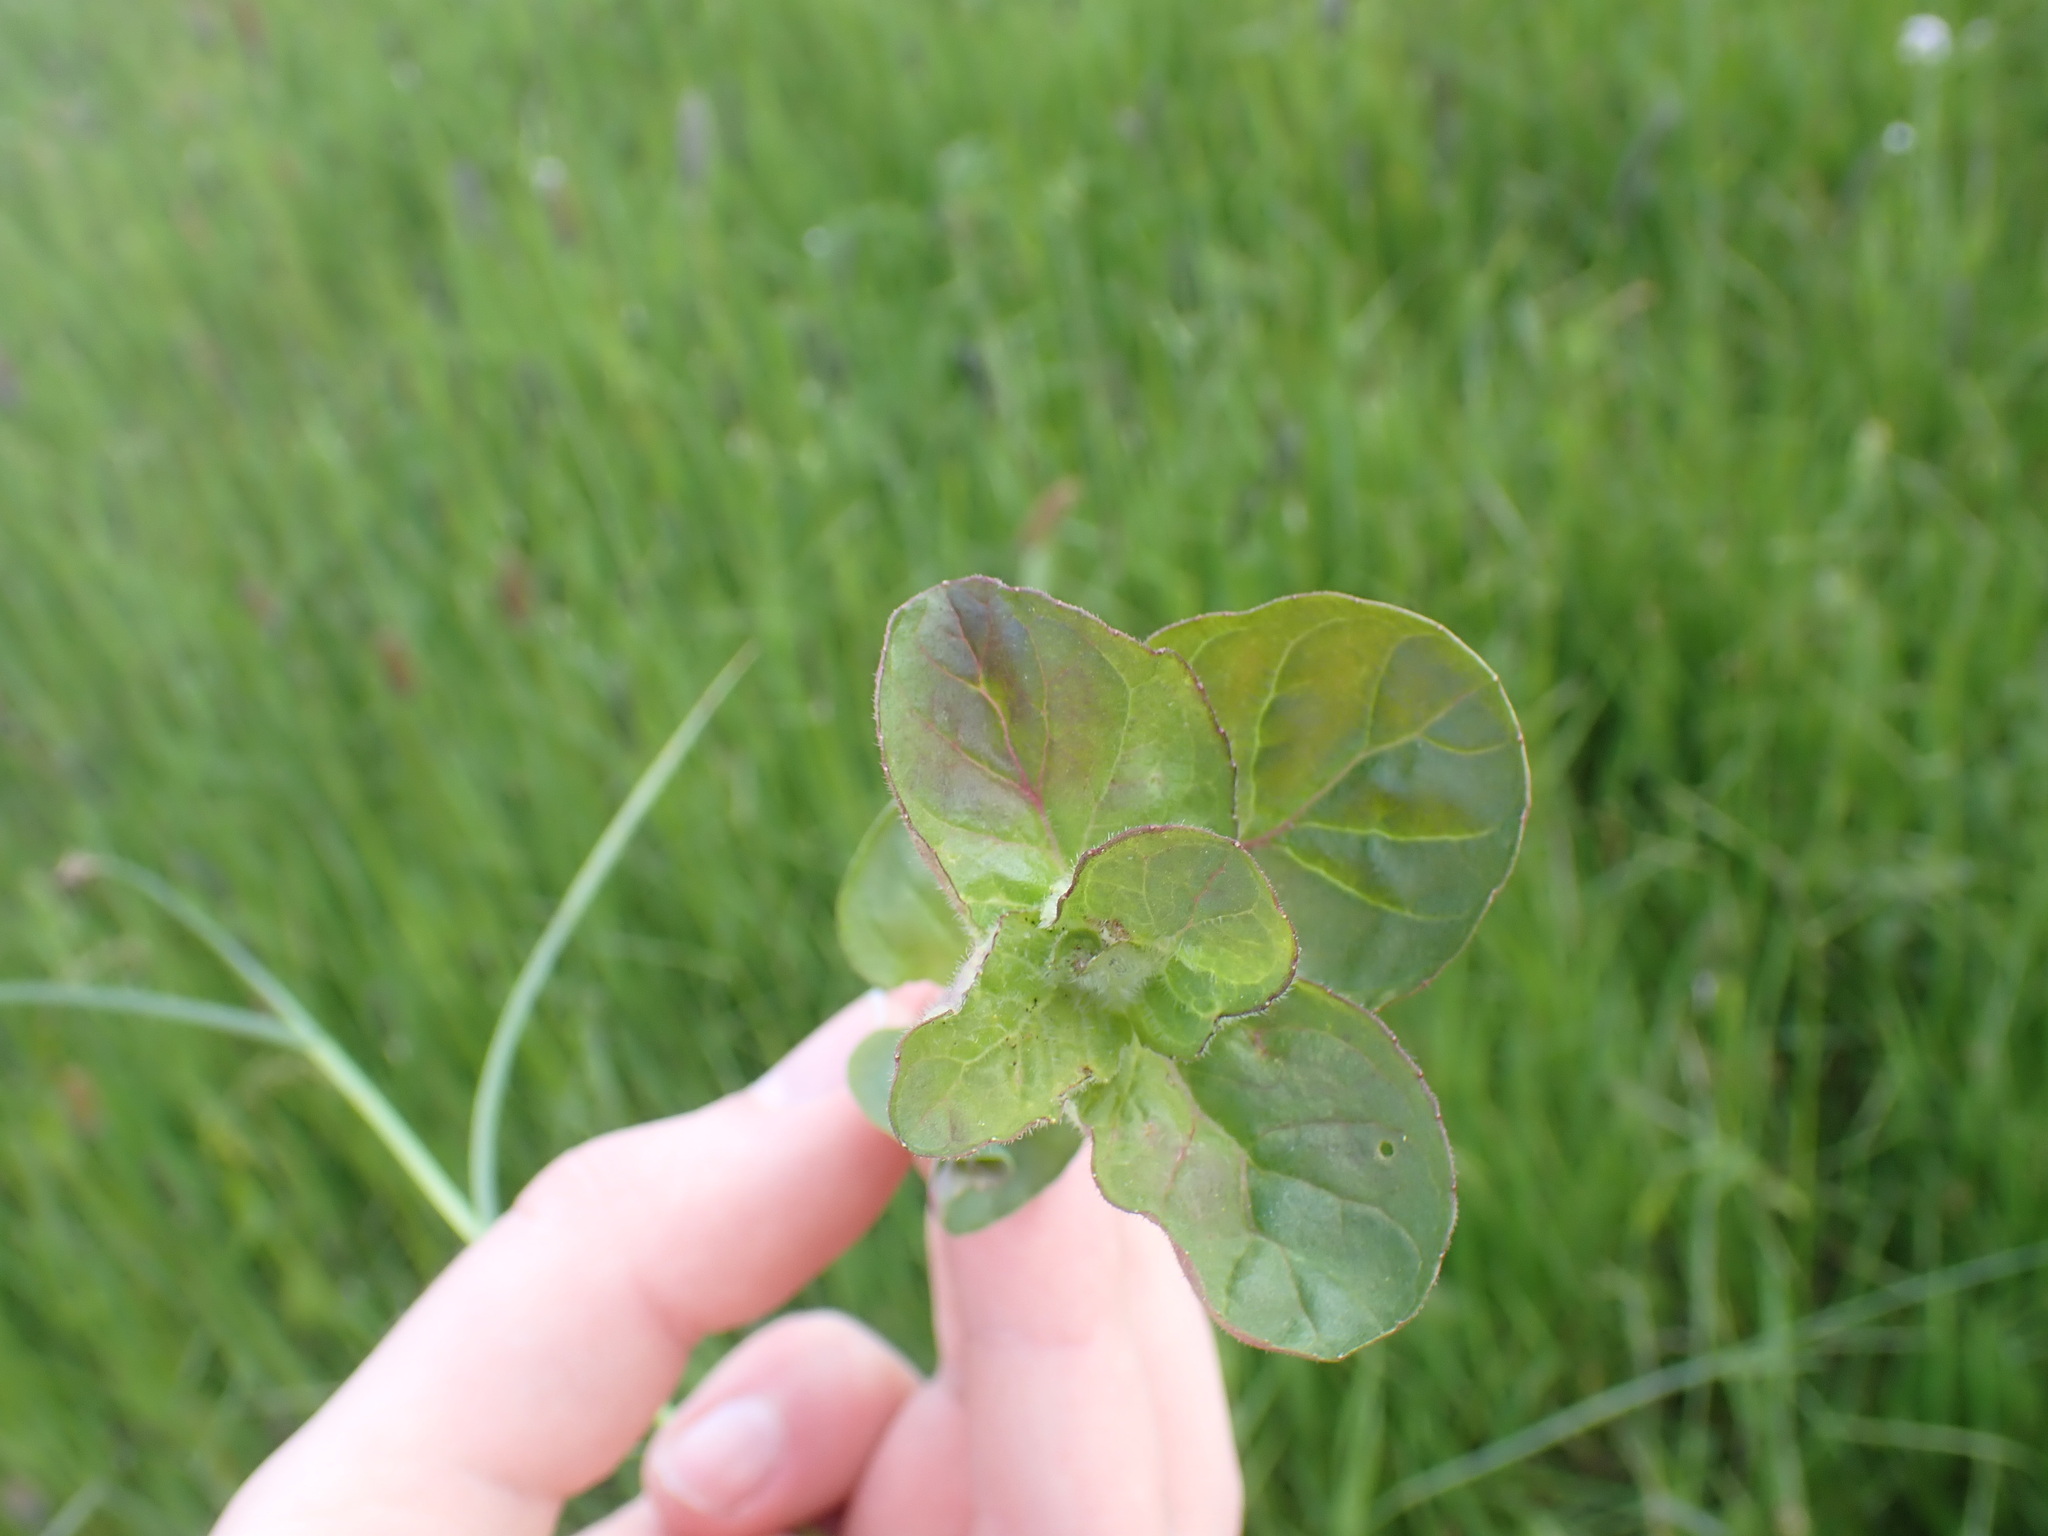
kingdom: Plantae
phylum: Tracheophyta
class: Magnoliopsida
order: Lamiales
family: Lamiaceae
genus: Mentha
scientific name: Mentha aquatica
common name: Water mint
